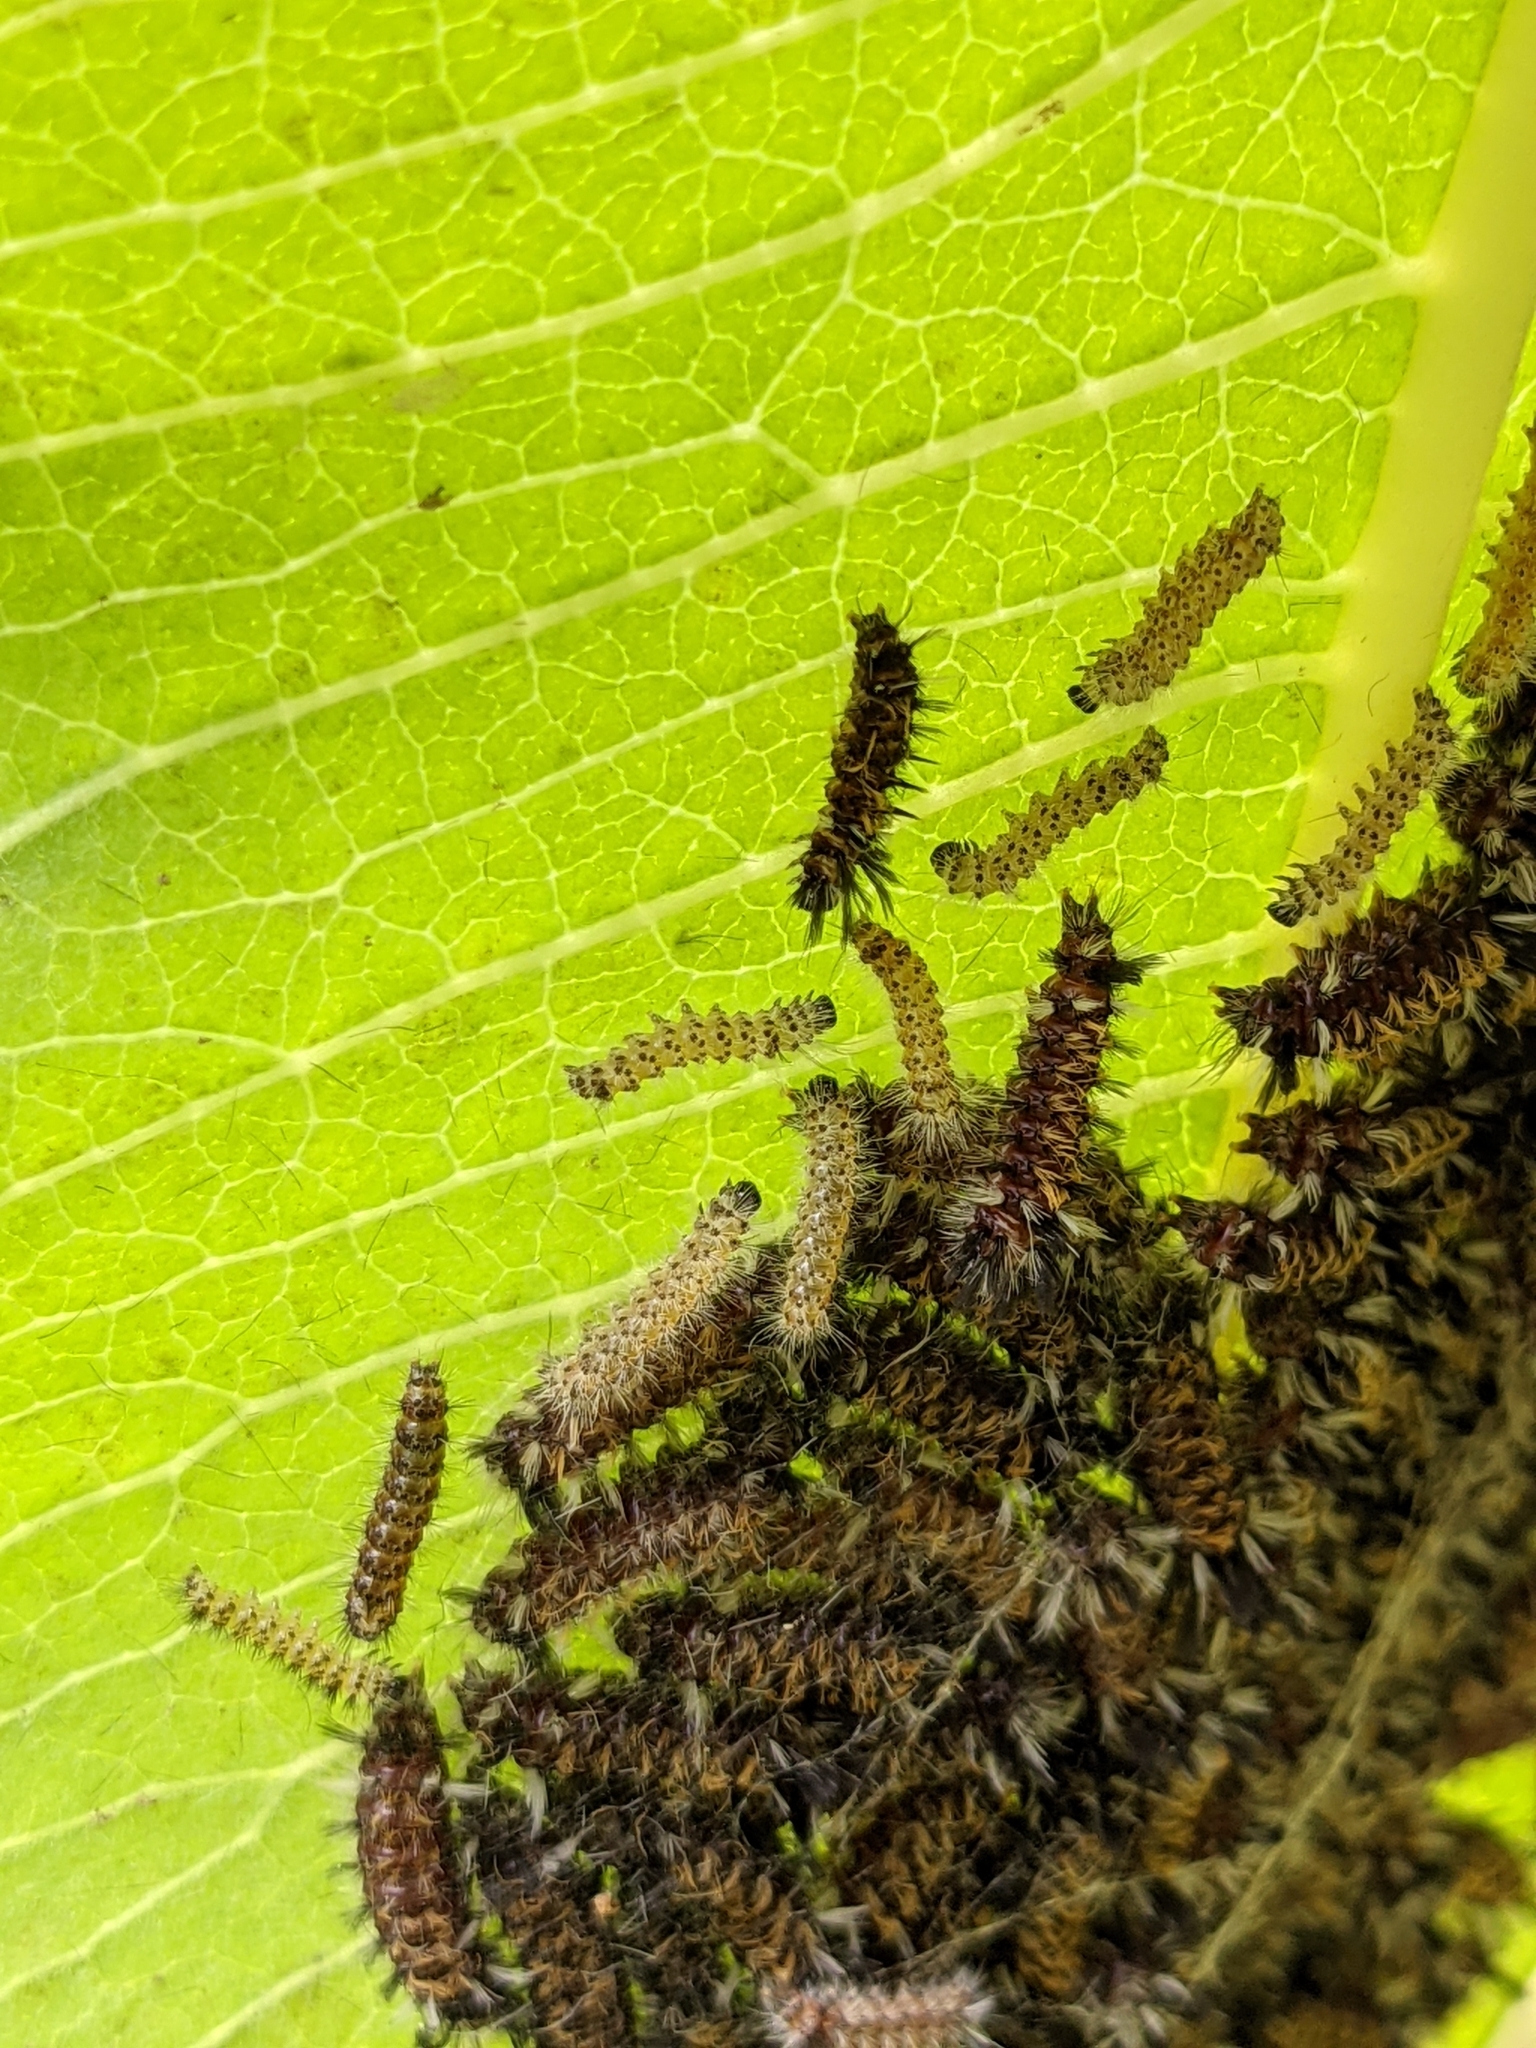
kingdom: Animalia
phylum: Arthropoda
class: Insecta
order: Lepidoptera
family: Erebidae
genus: Euchaetes
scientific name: Euchaetes egle
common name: Milkweed tussock moth
